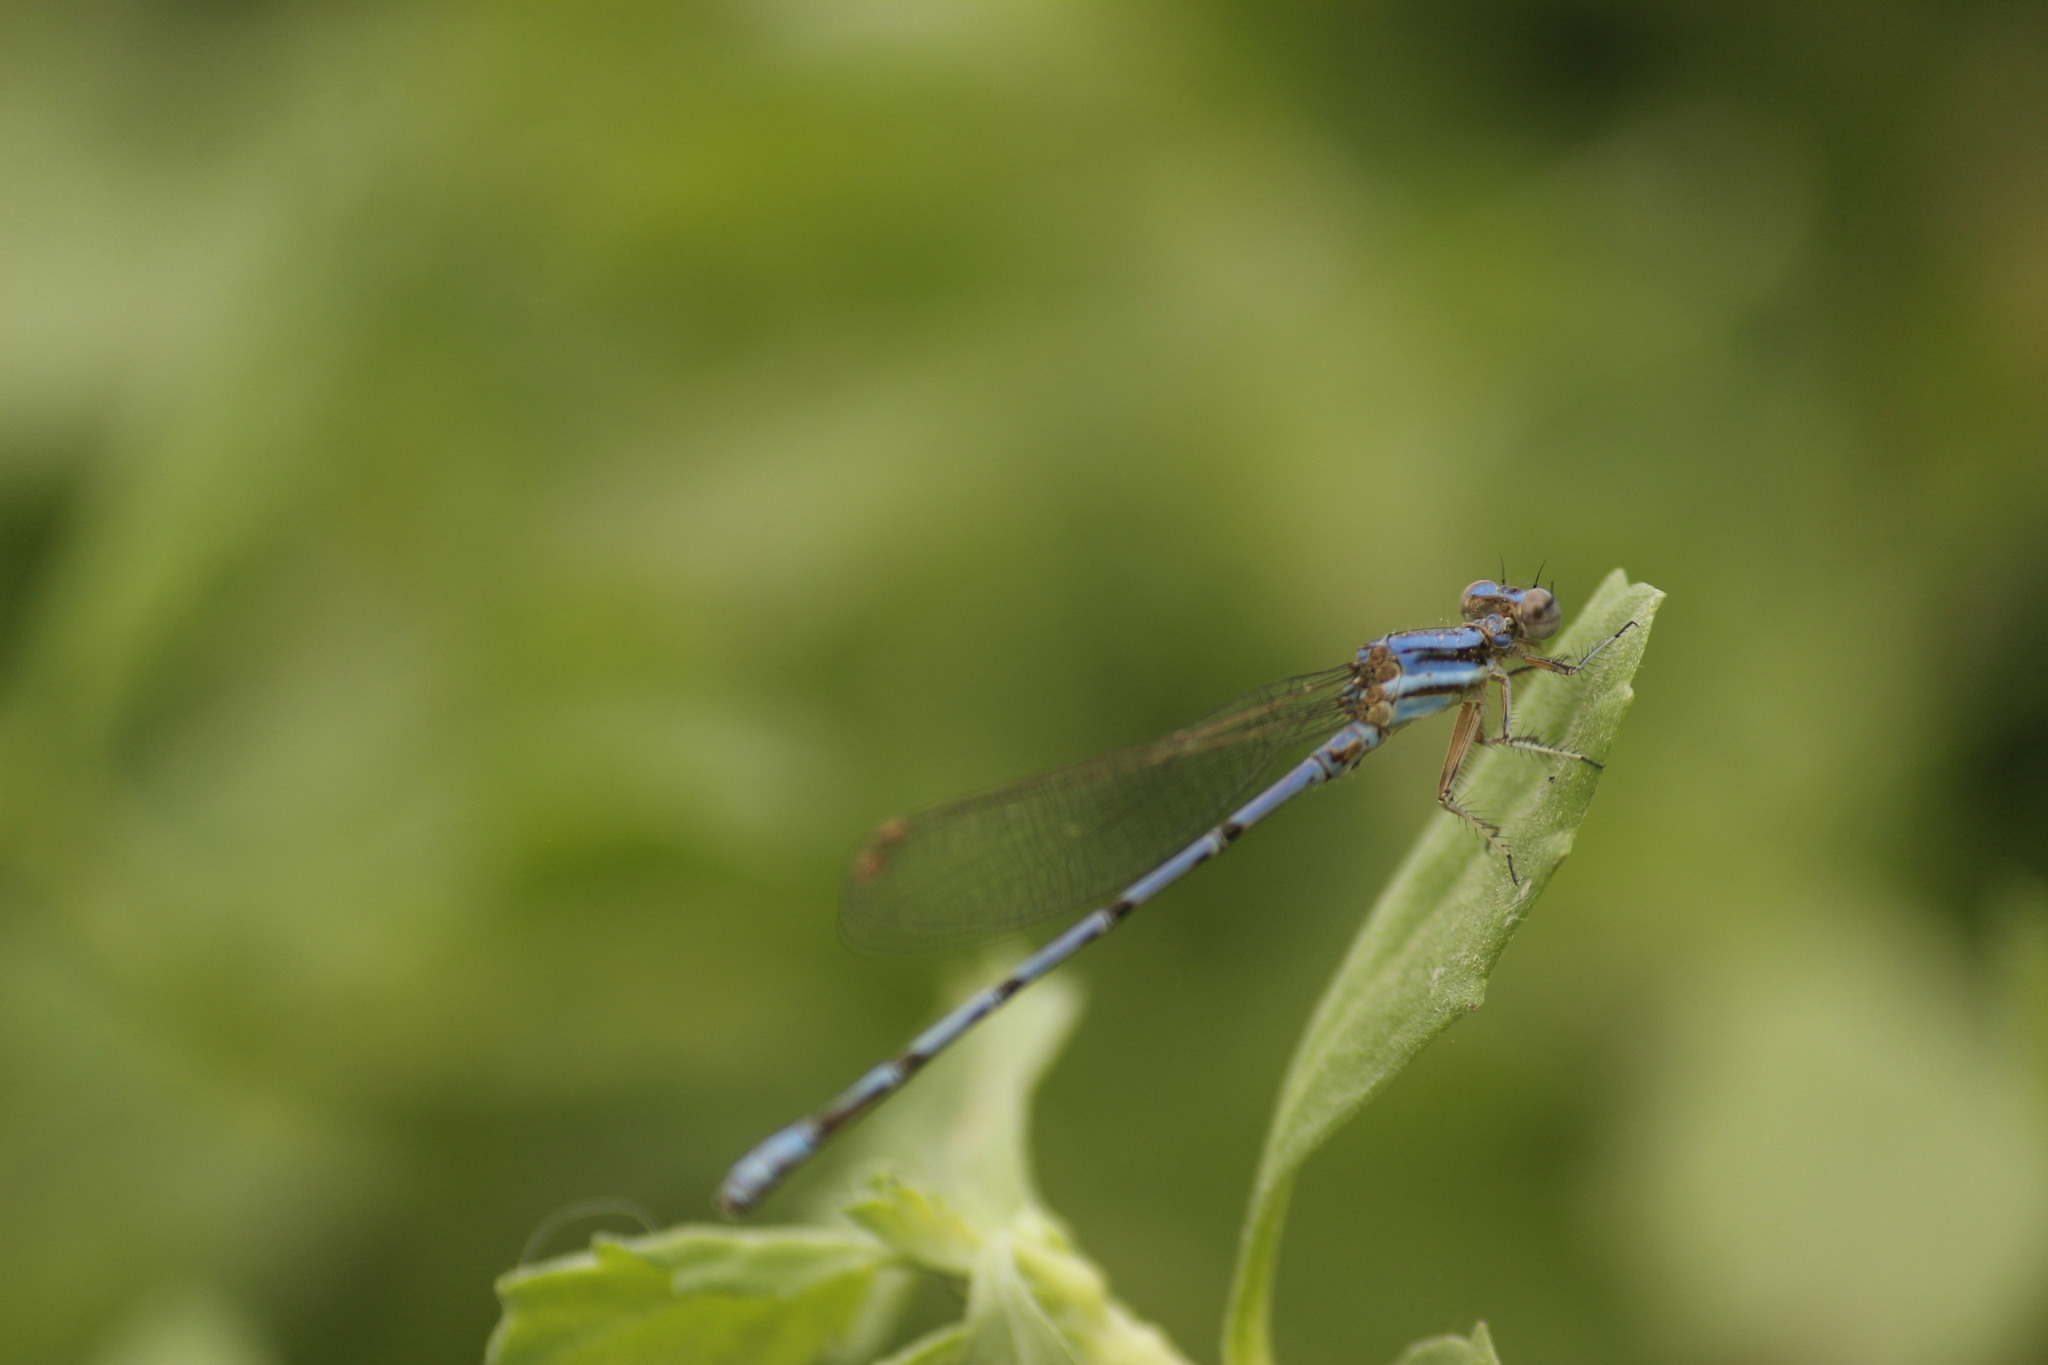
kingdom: Animalia
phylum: Arthropoda
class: Insecta
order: Odonata
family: Coenagrionidae
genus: Argia
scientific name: Argia inculta
